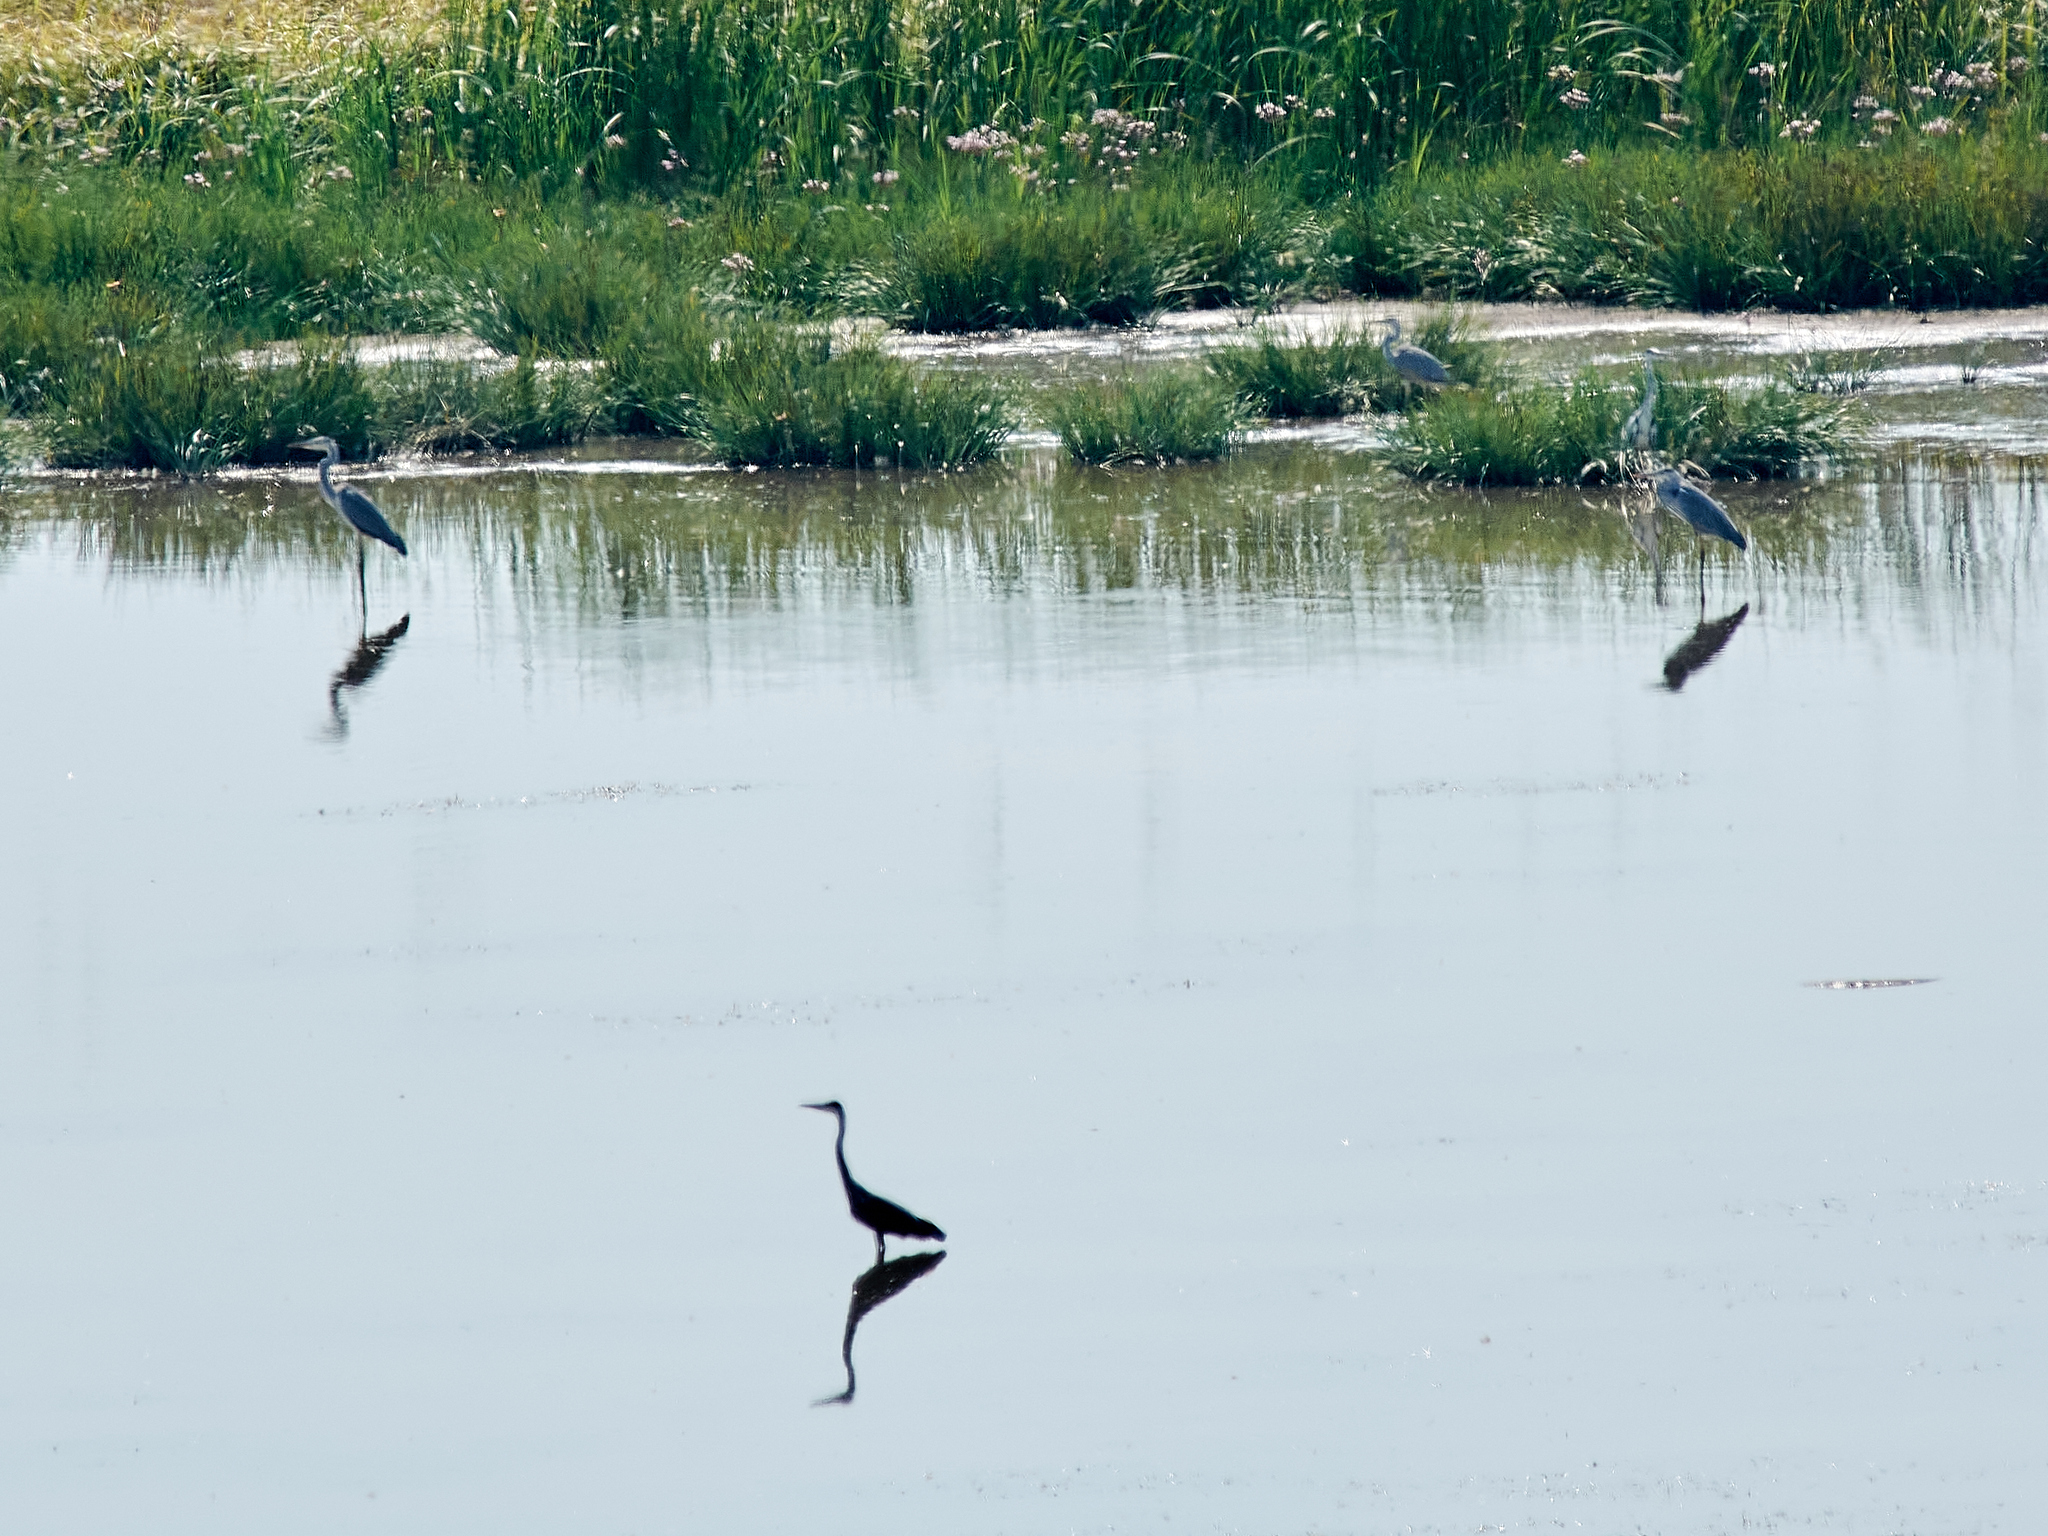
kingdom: Animalia
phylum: Chordata
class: Aves
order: Pelecaniformes
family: Ardeidae
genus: Ardea
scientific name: Ardea cinerea
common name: Grey heron
